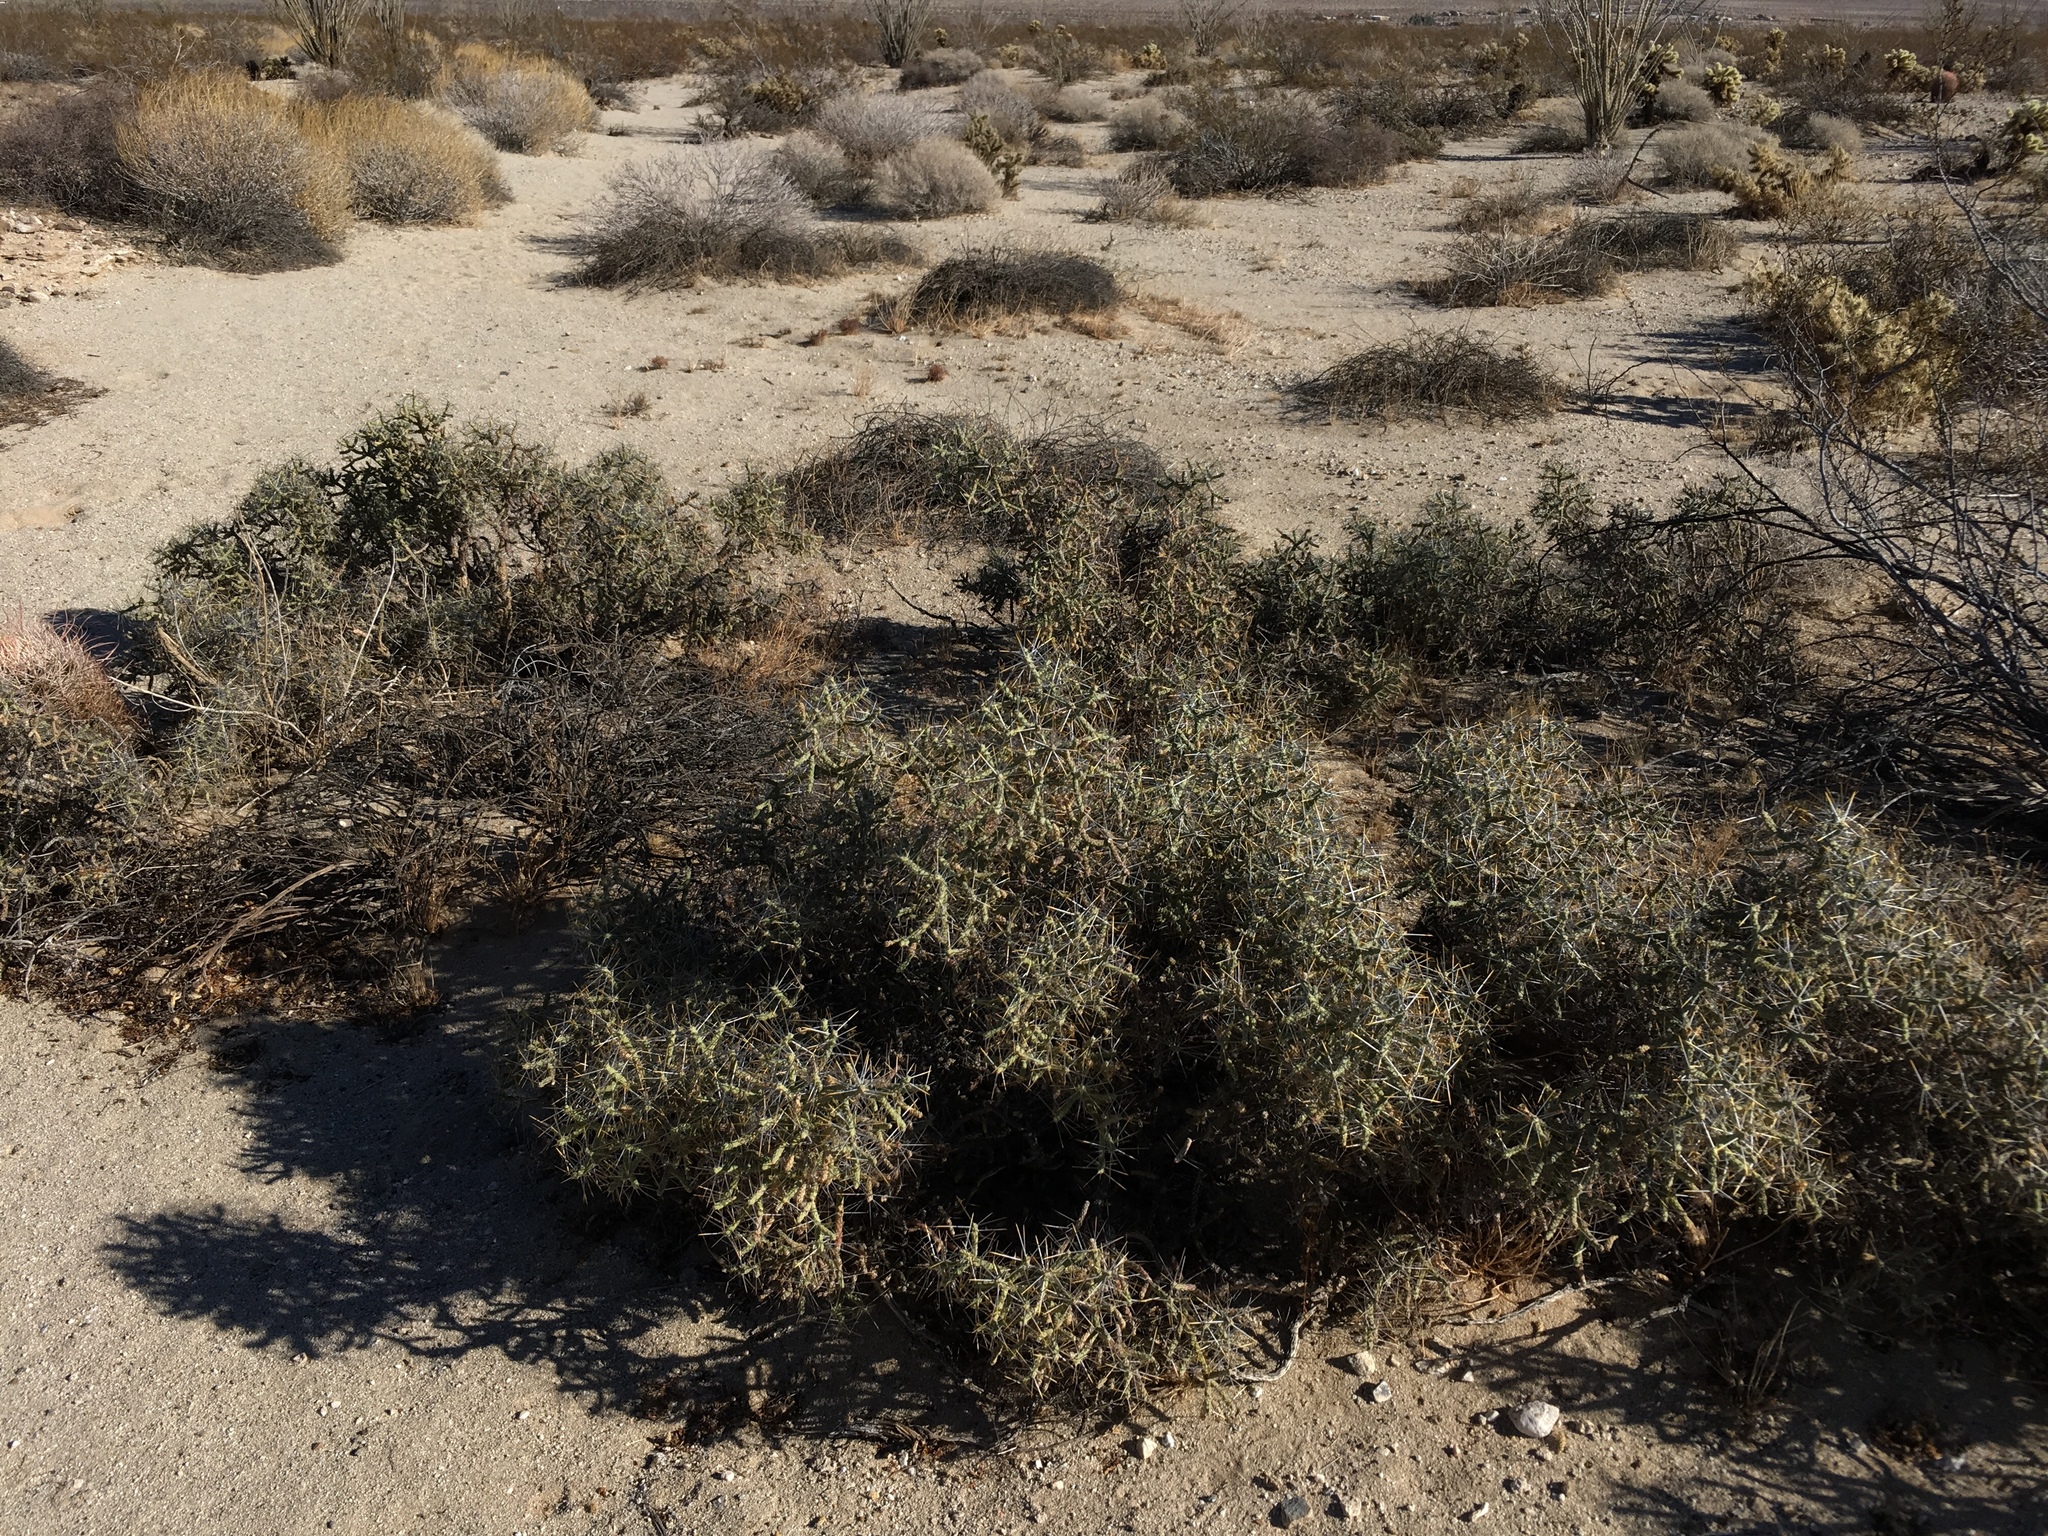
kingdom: Plantae
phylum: Tracheophyta
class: Magnoliopsida
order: Caryophyllales
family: Cactaceae
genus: Cylindropuntia
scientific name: Cylindropuntia ramosissima
